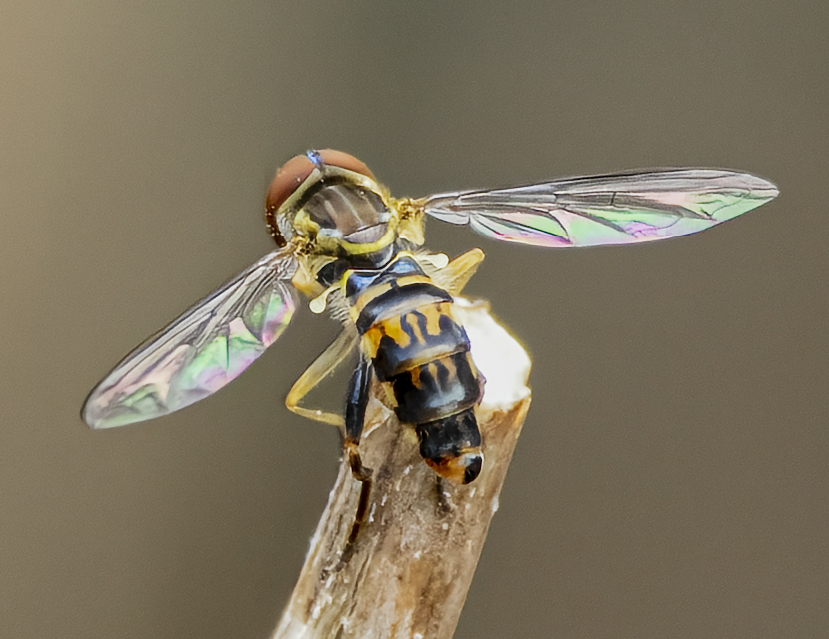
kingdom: Animalia
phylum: Arthropoda
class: Insecta
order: Diptera
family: Syrphidae
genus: Toxomerus
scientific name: Toxomerus geminatus
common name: Eastern calligrapher
